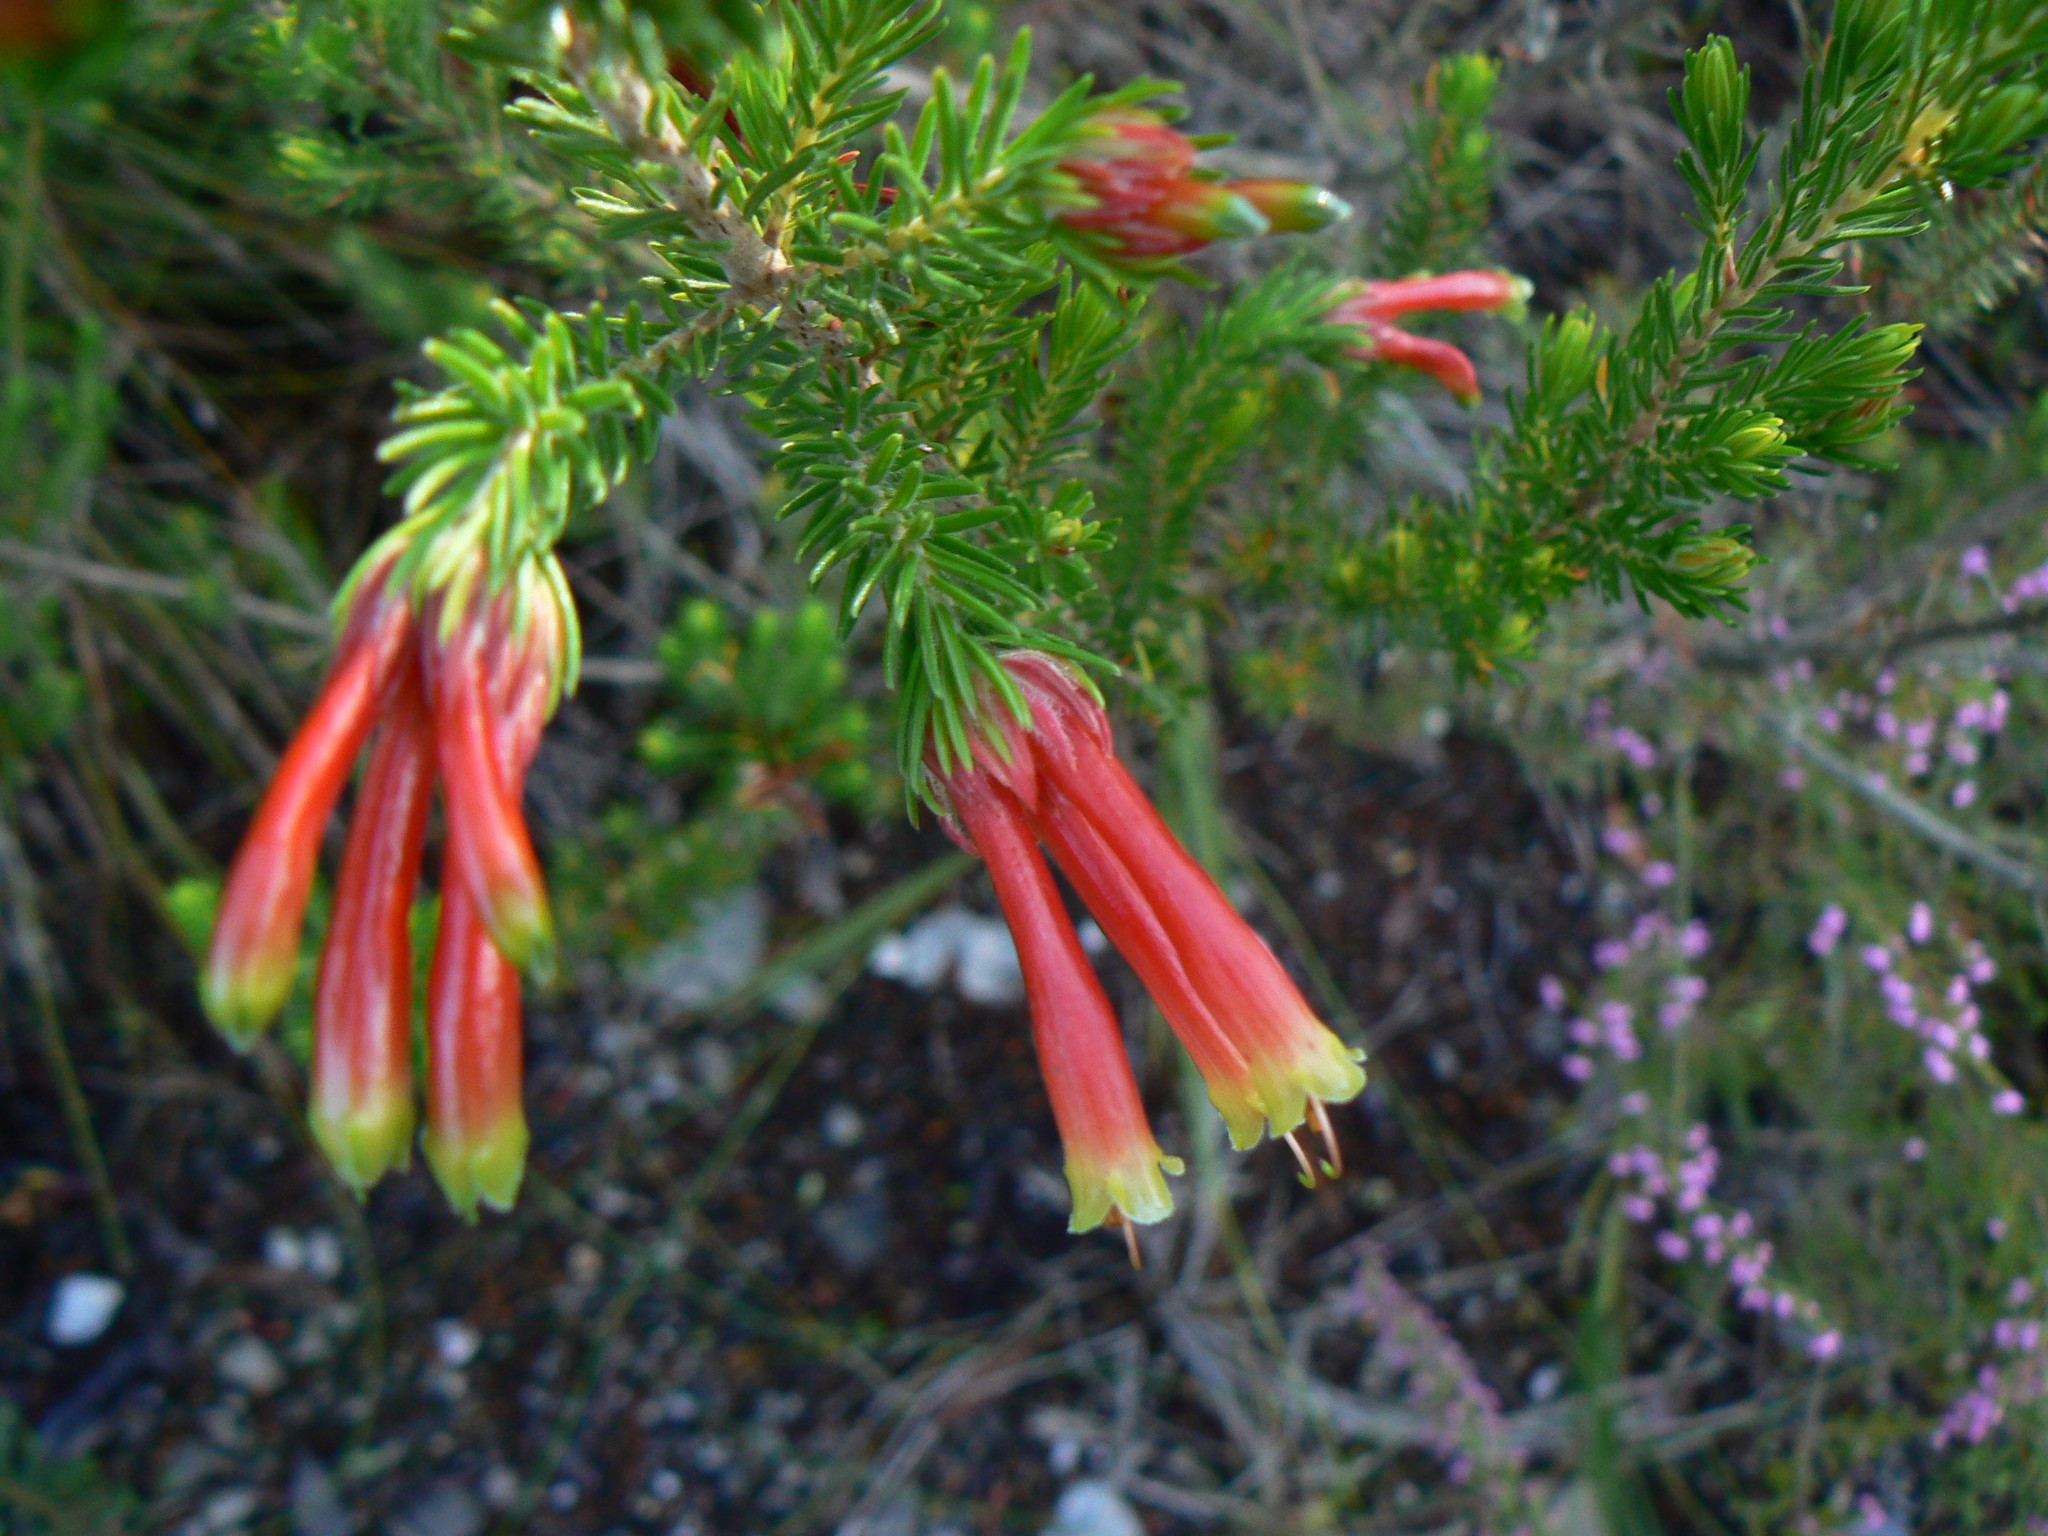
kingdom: Plantae
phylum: Tracheophyta
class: Magnoliopsida
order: Ericales
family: Ericaceae
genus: Erica
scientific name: Erica discolor
